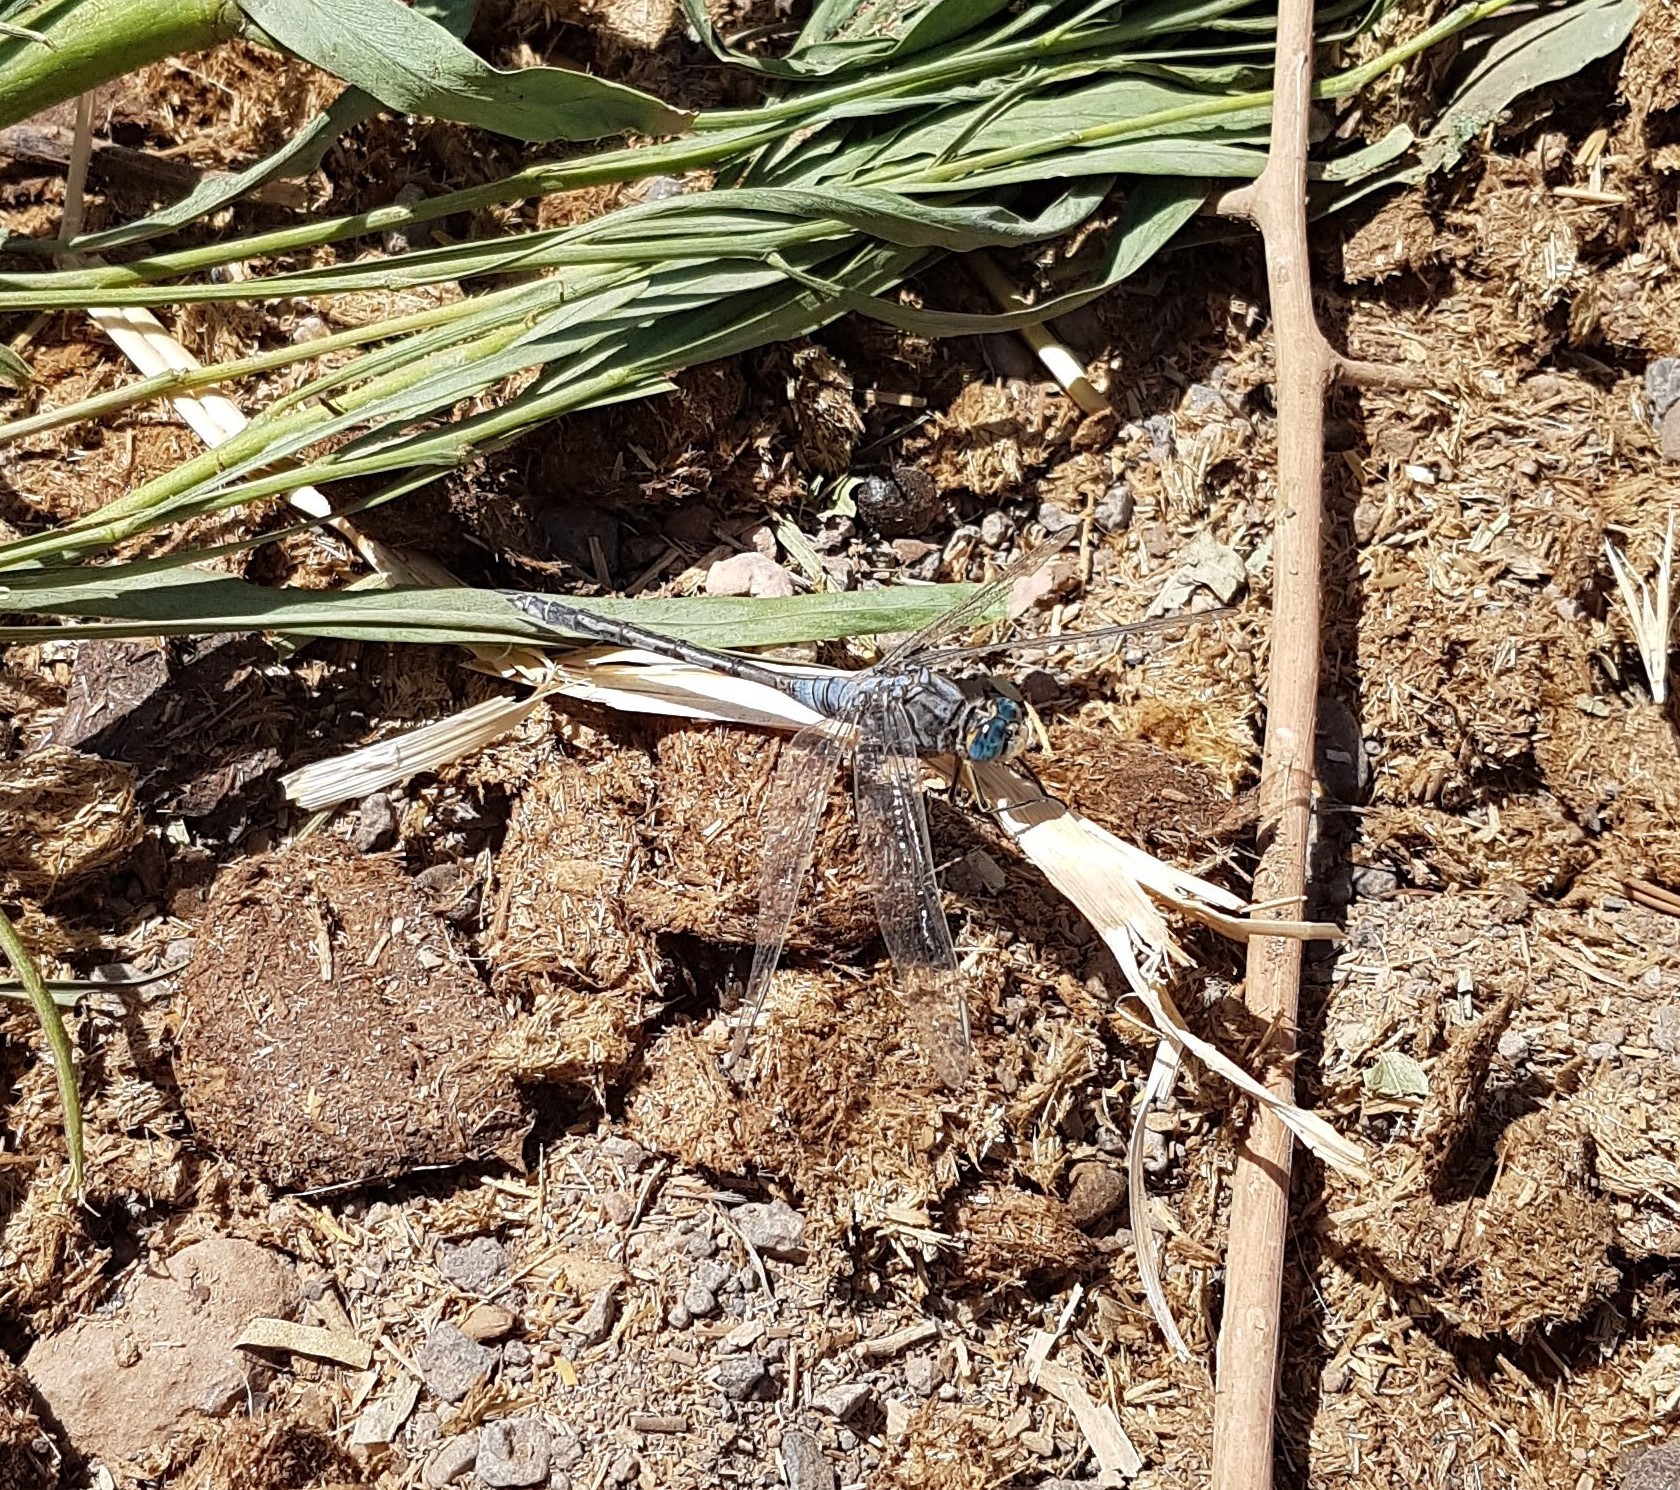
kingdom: Animalia
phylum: Arthropoda
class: Insecta
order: Odonata
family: Libellulidae
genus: Orthetrum
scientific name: Orthetrum trinacria
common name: Long skimmer
